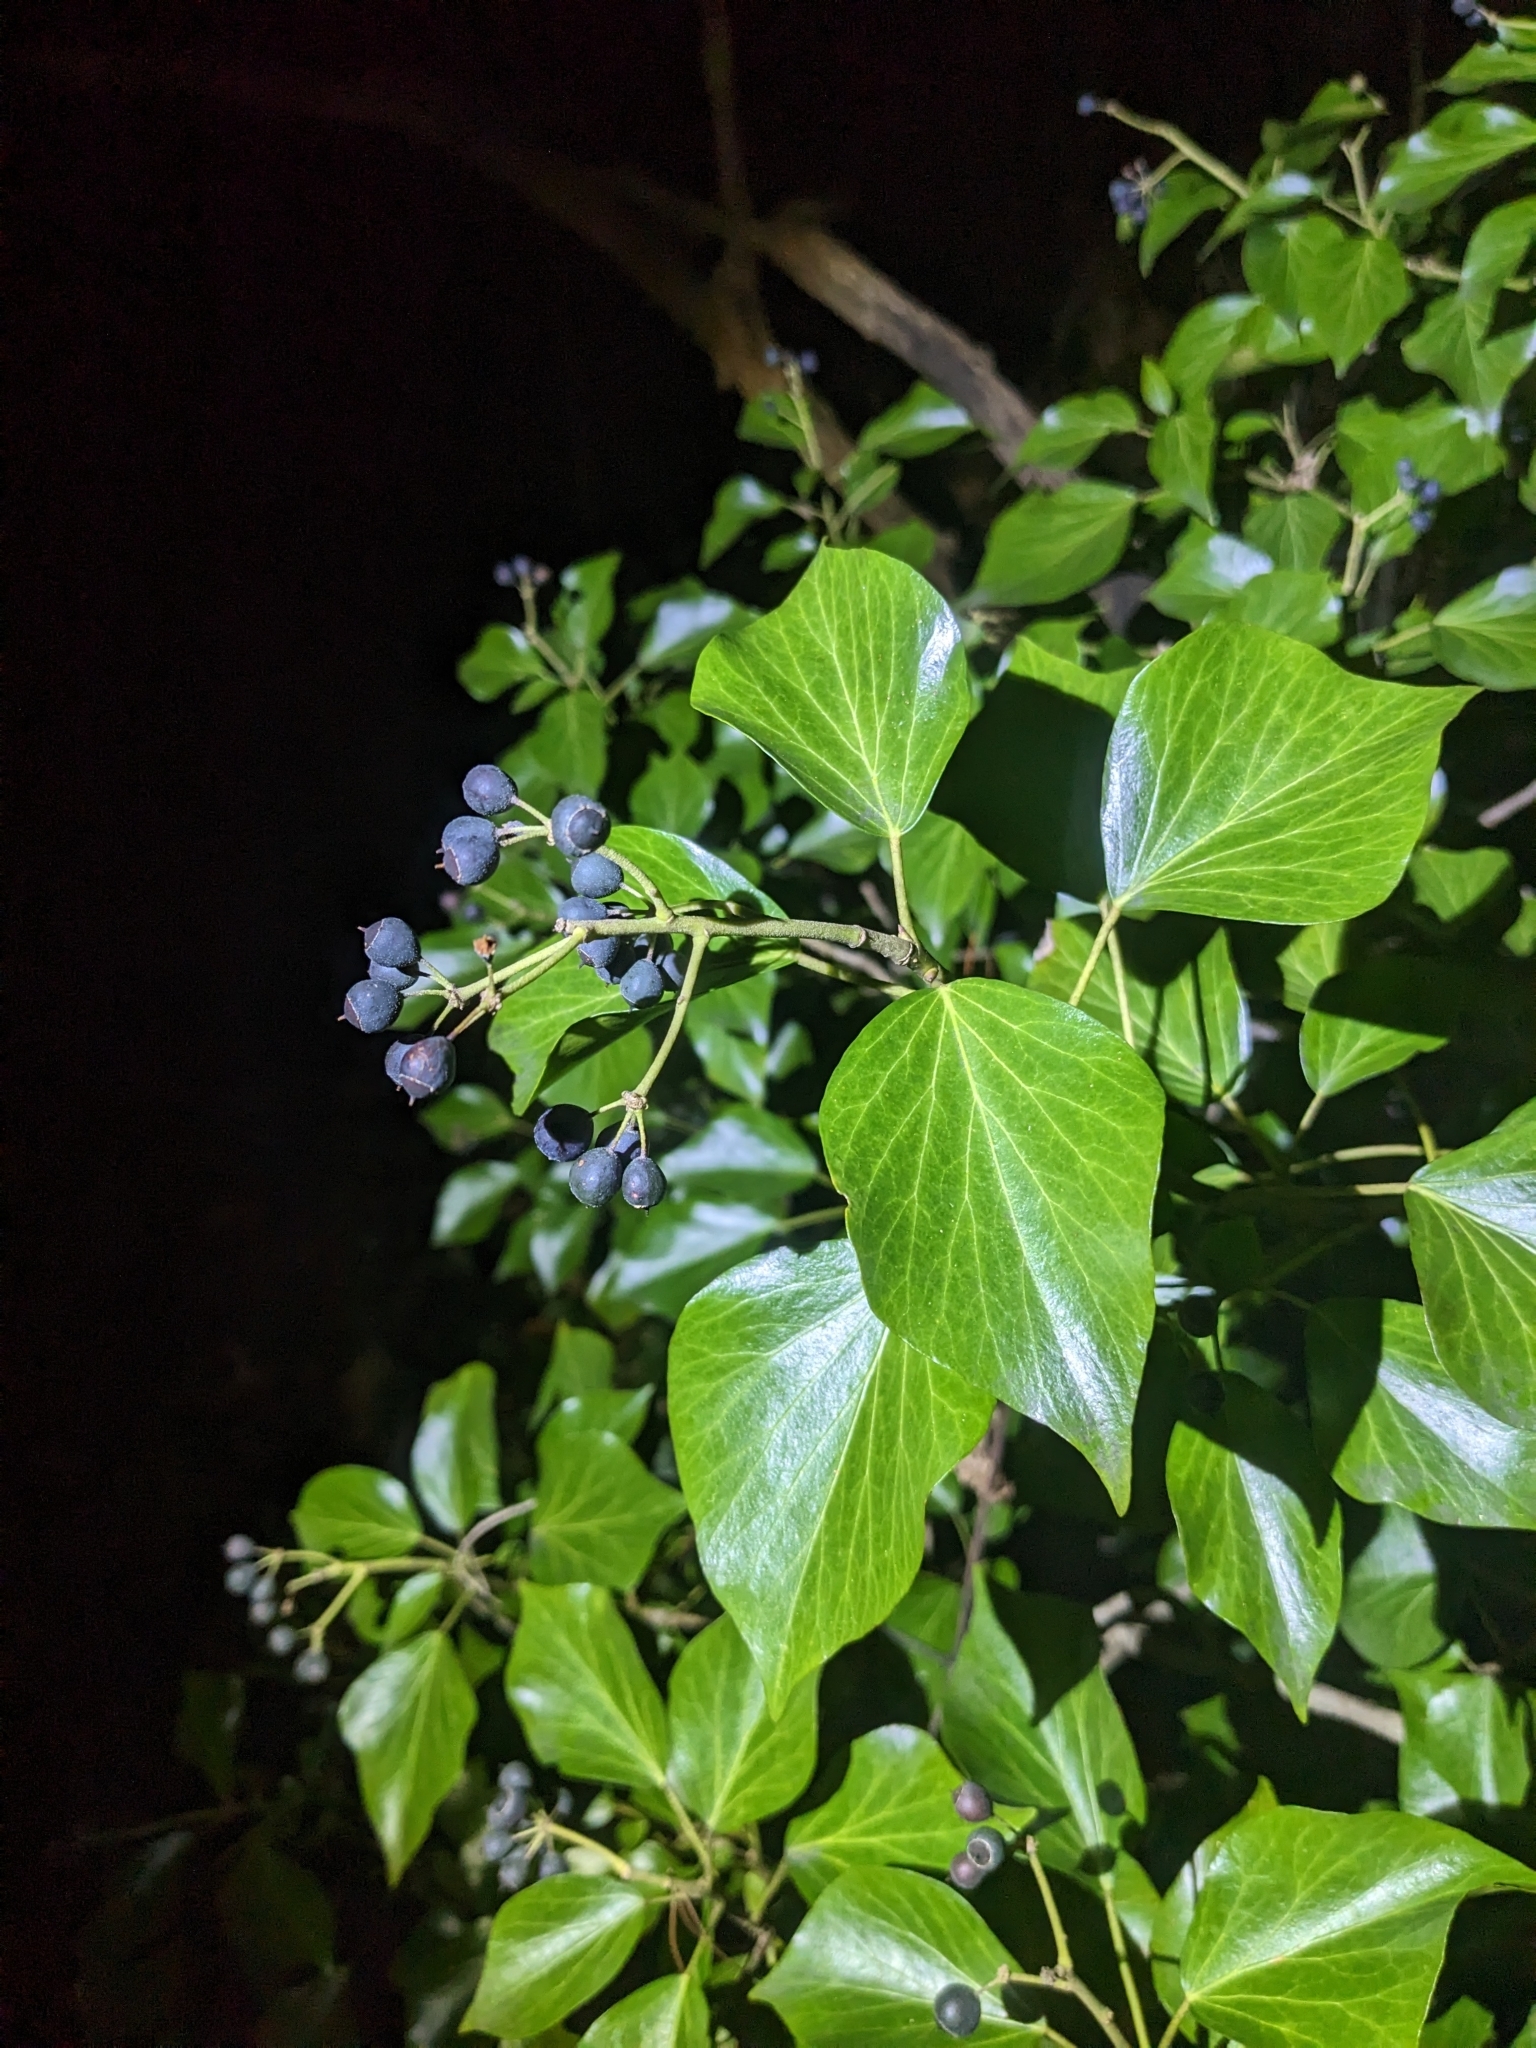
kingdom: Plantae
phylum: Tracheophyta
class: Magnoliopsida
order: Apiales
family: Araliaceae
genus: Hedera
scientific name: Hedera helix
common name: Ivy
